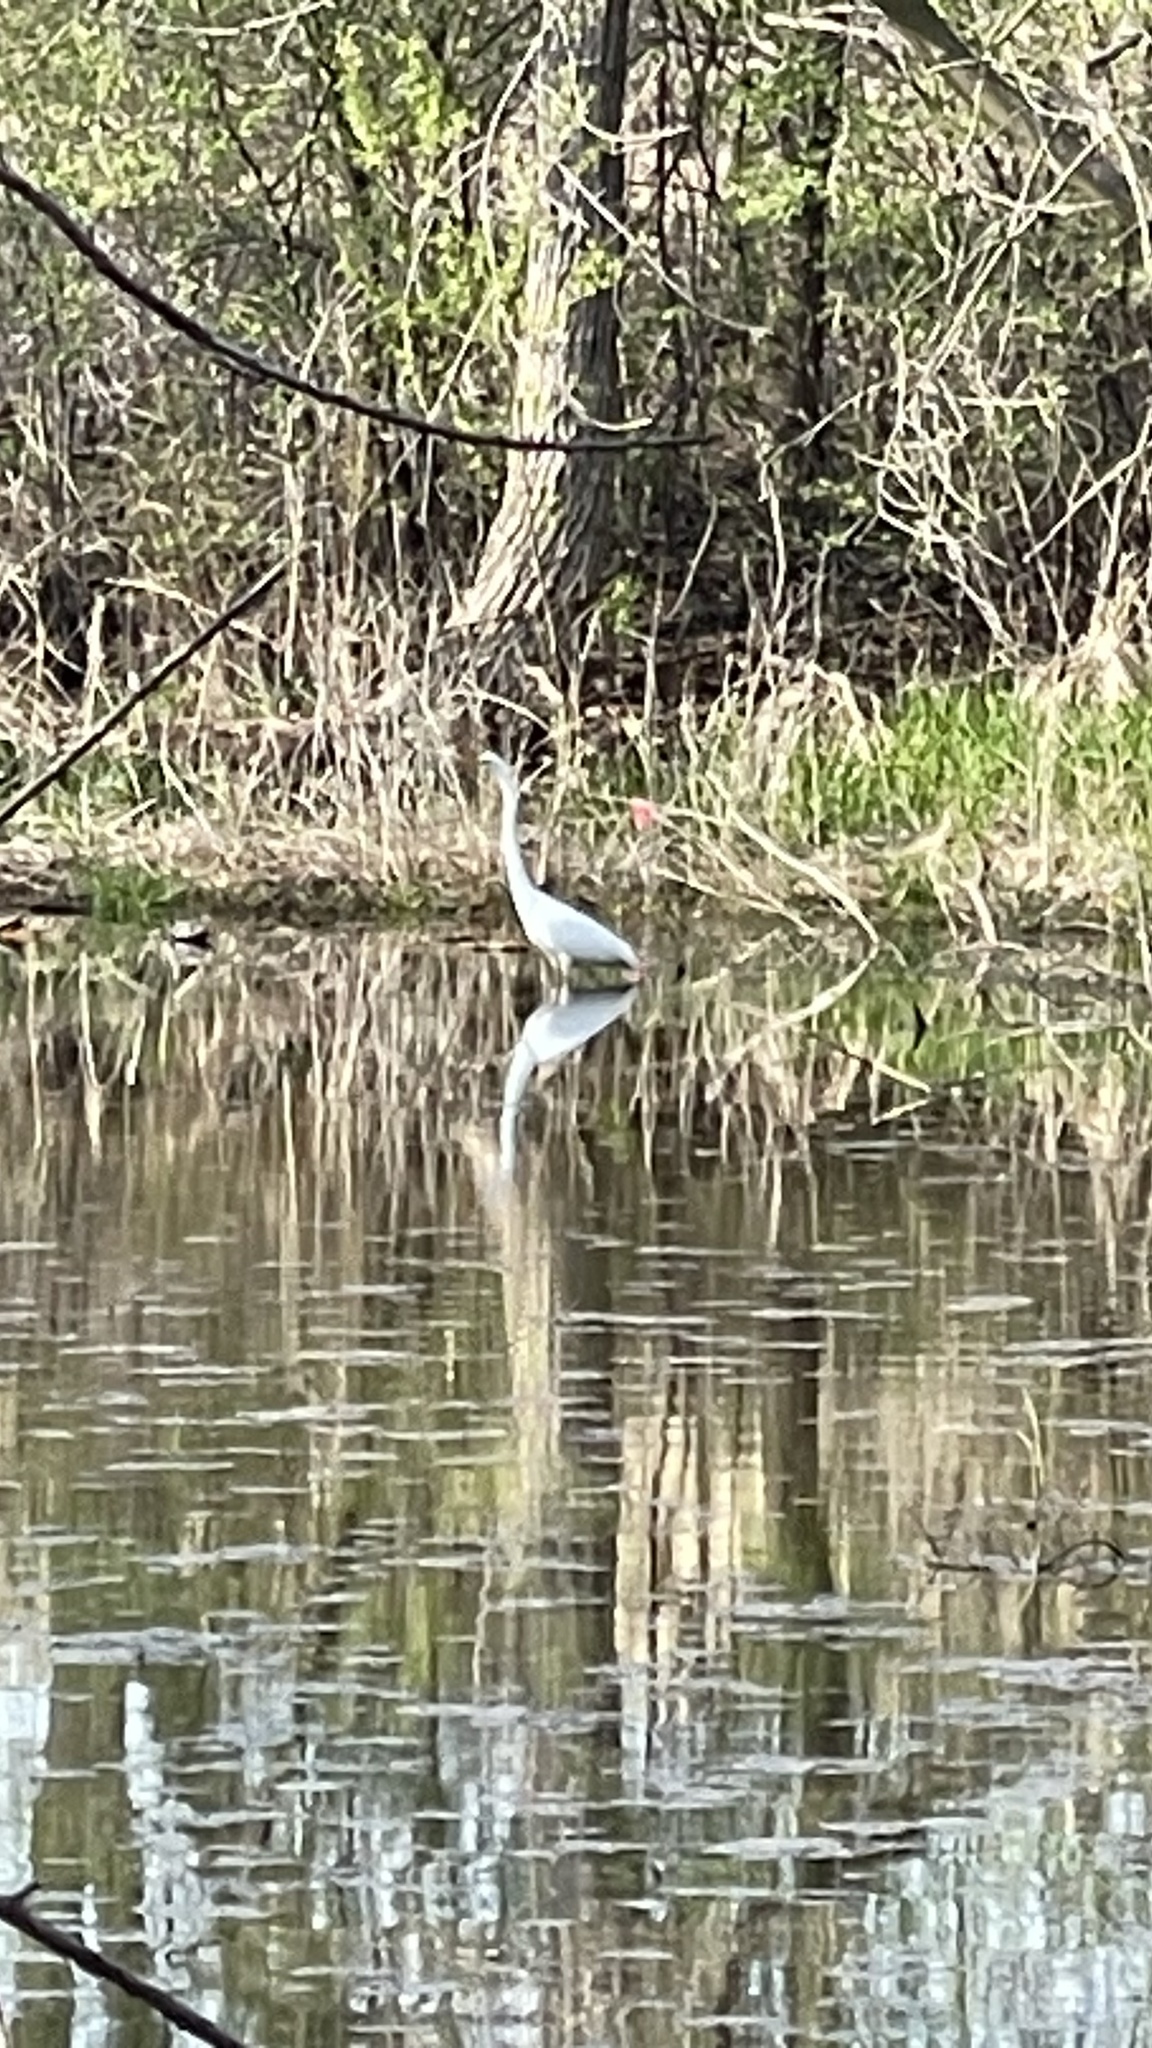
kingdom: Animalia
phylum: Chordata
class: Aves
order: Pelecaniformes
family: Ardeidae
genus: Ardea
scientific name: Ardea alba
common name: Great egret
